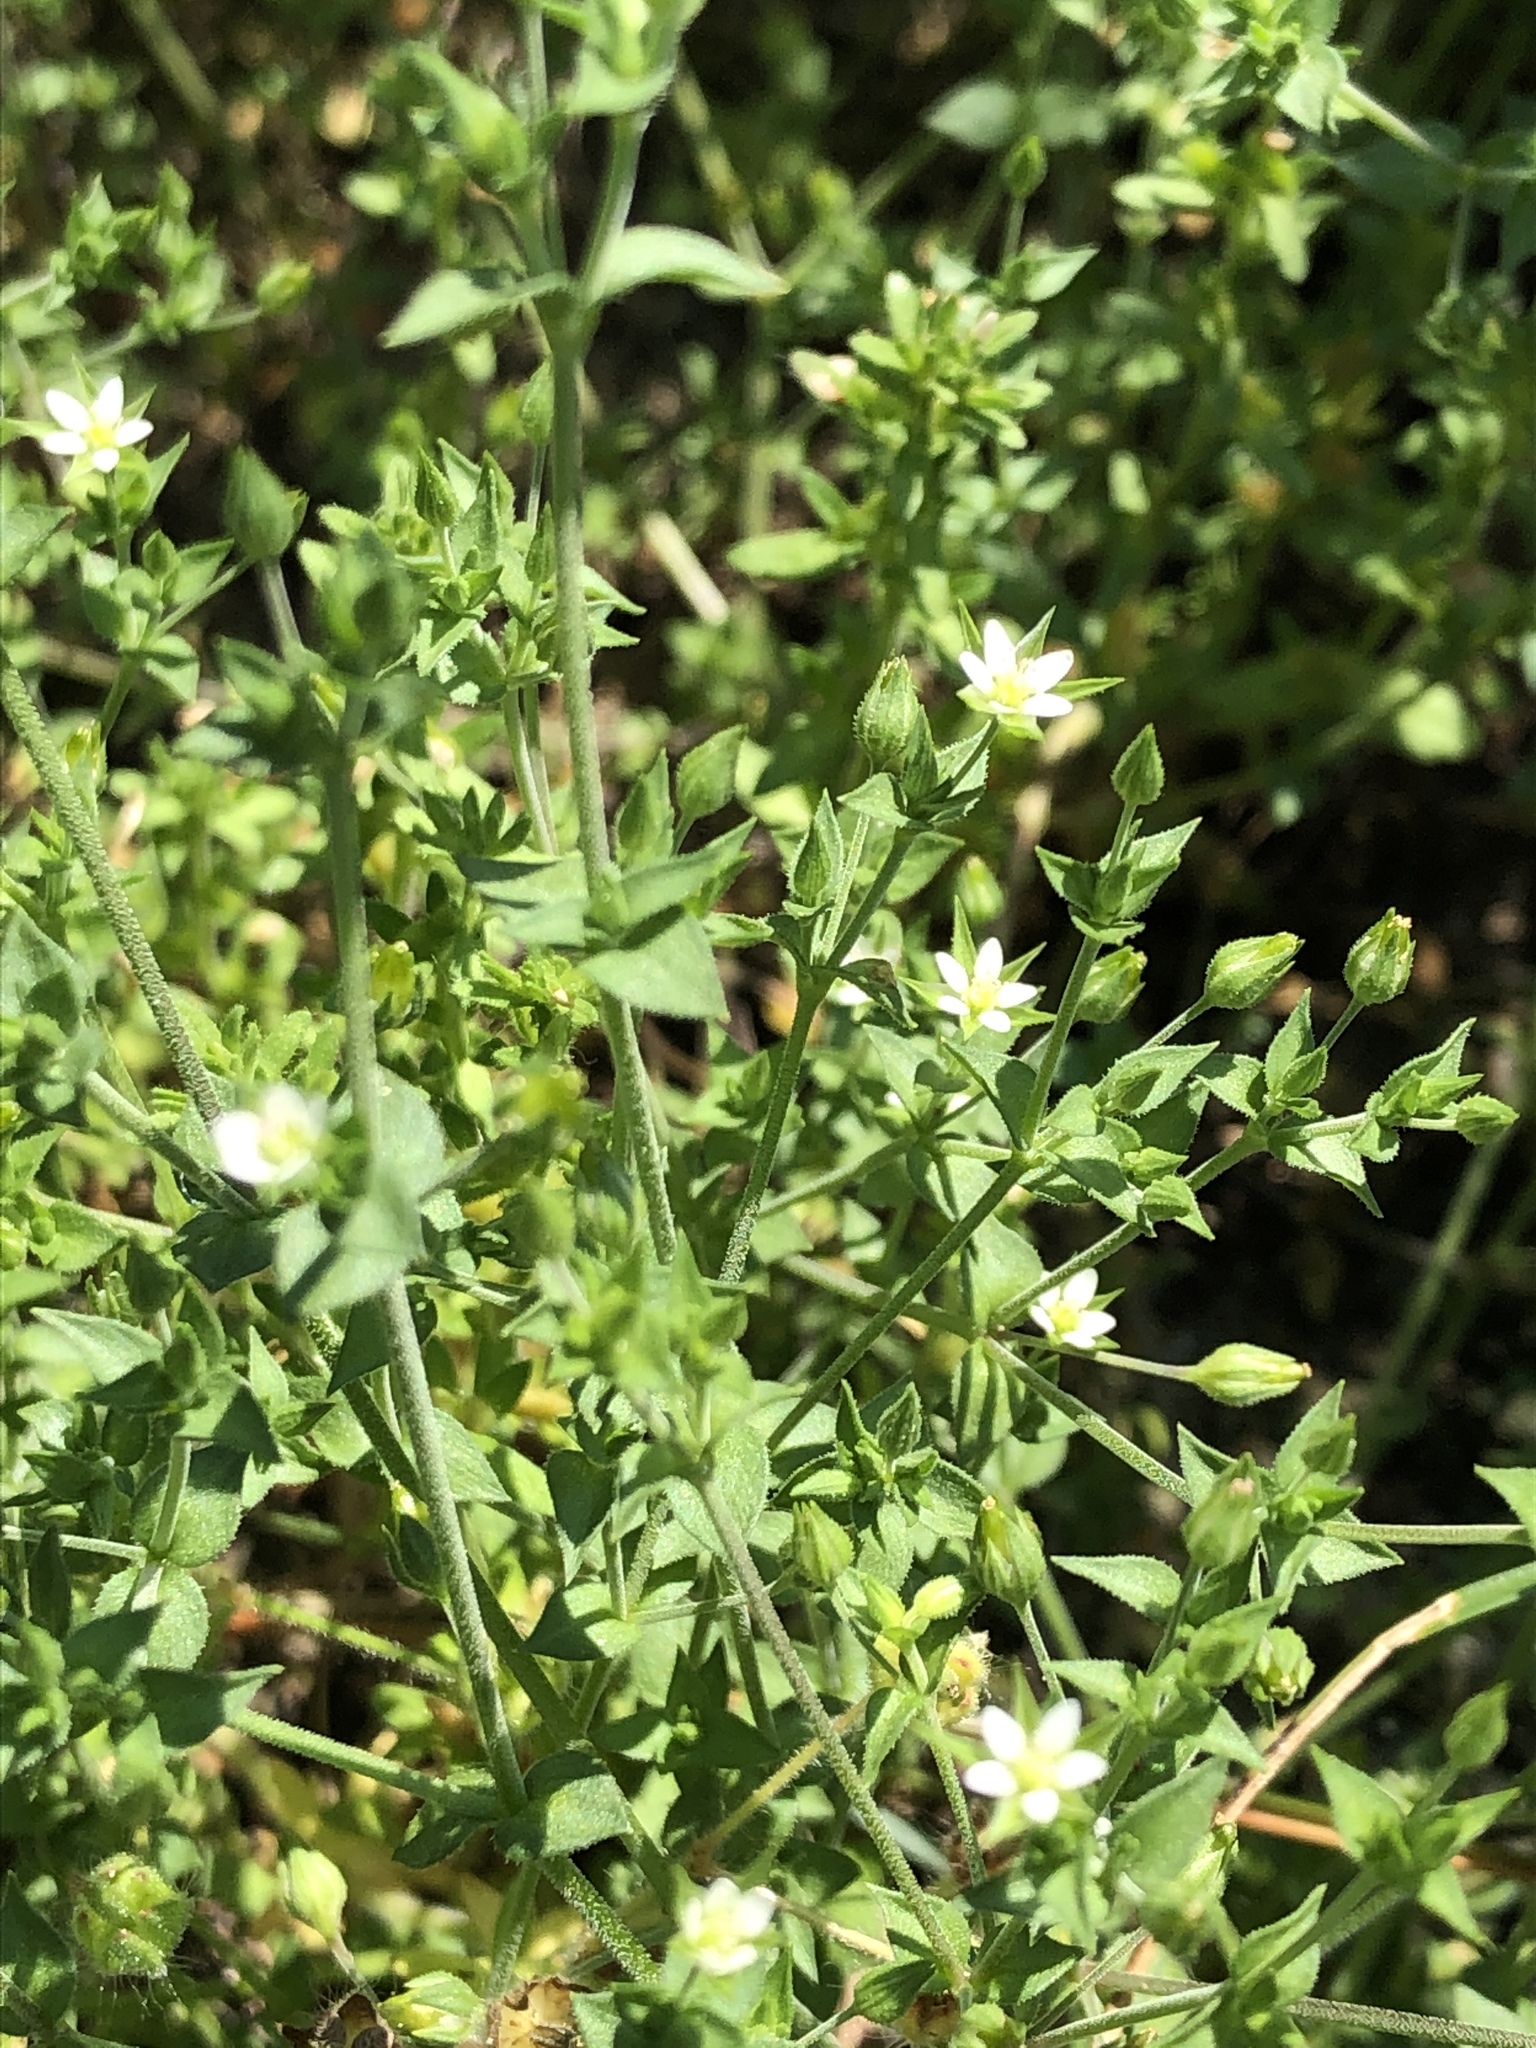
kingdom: Plantae
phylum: Tracheophyta
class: Magnoliopsida
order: Caryophyllales
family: Caryophyllaceae
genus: Arenaria
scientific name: Arenaria serpyllifolia
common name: Thyme-leaved sandwort
